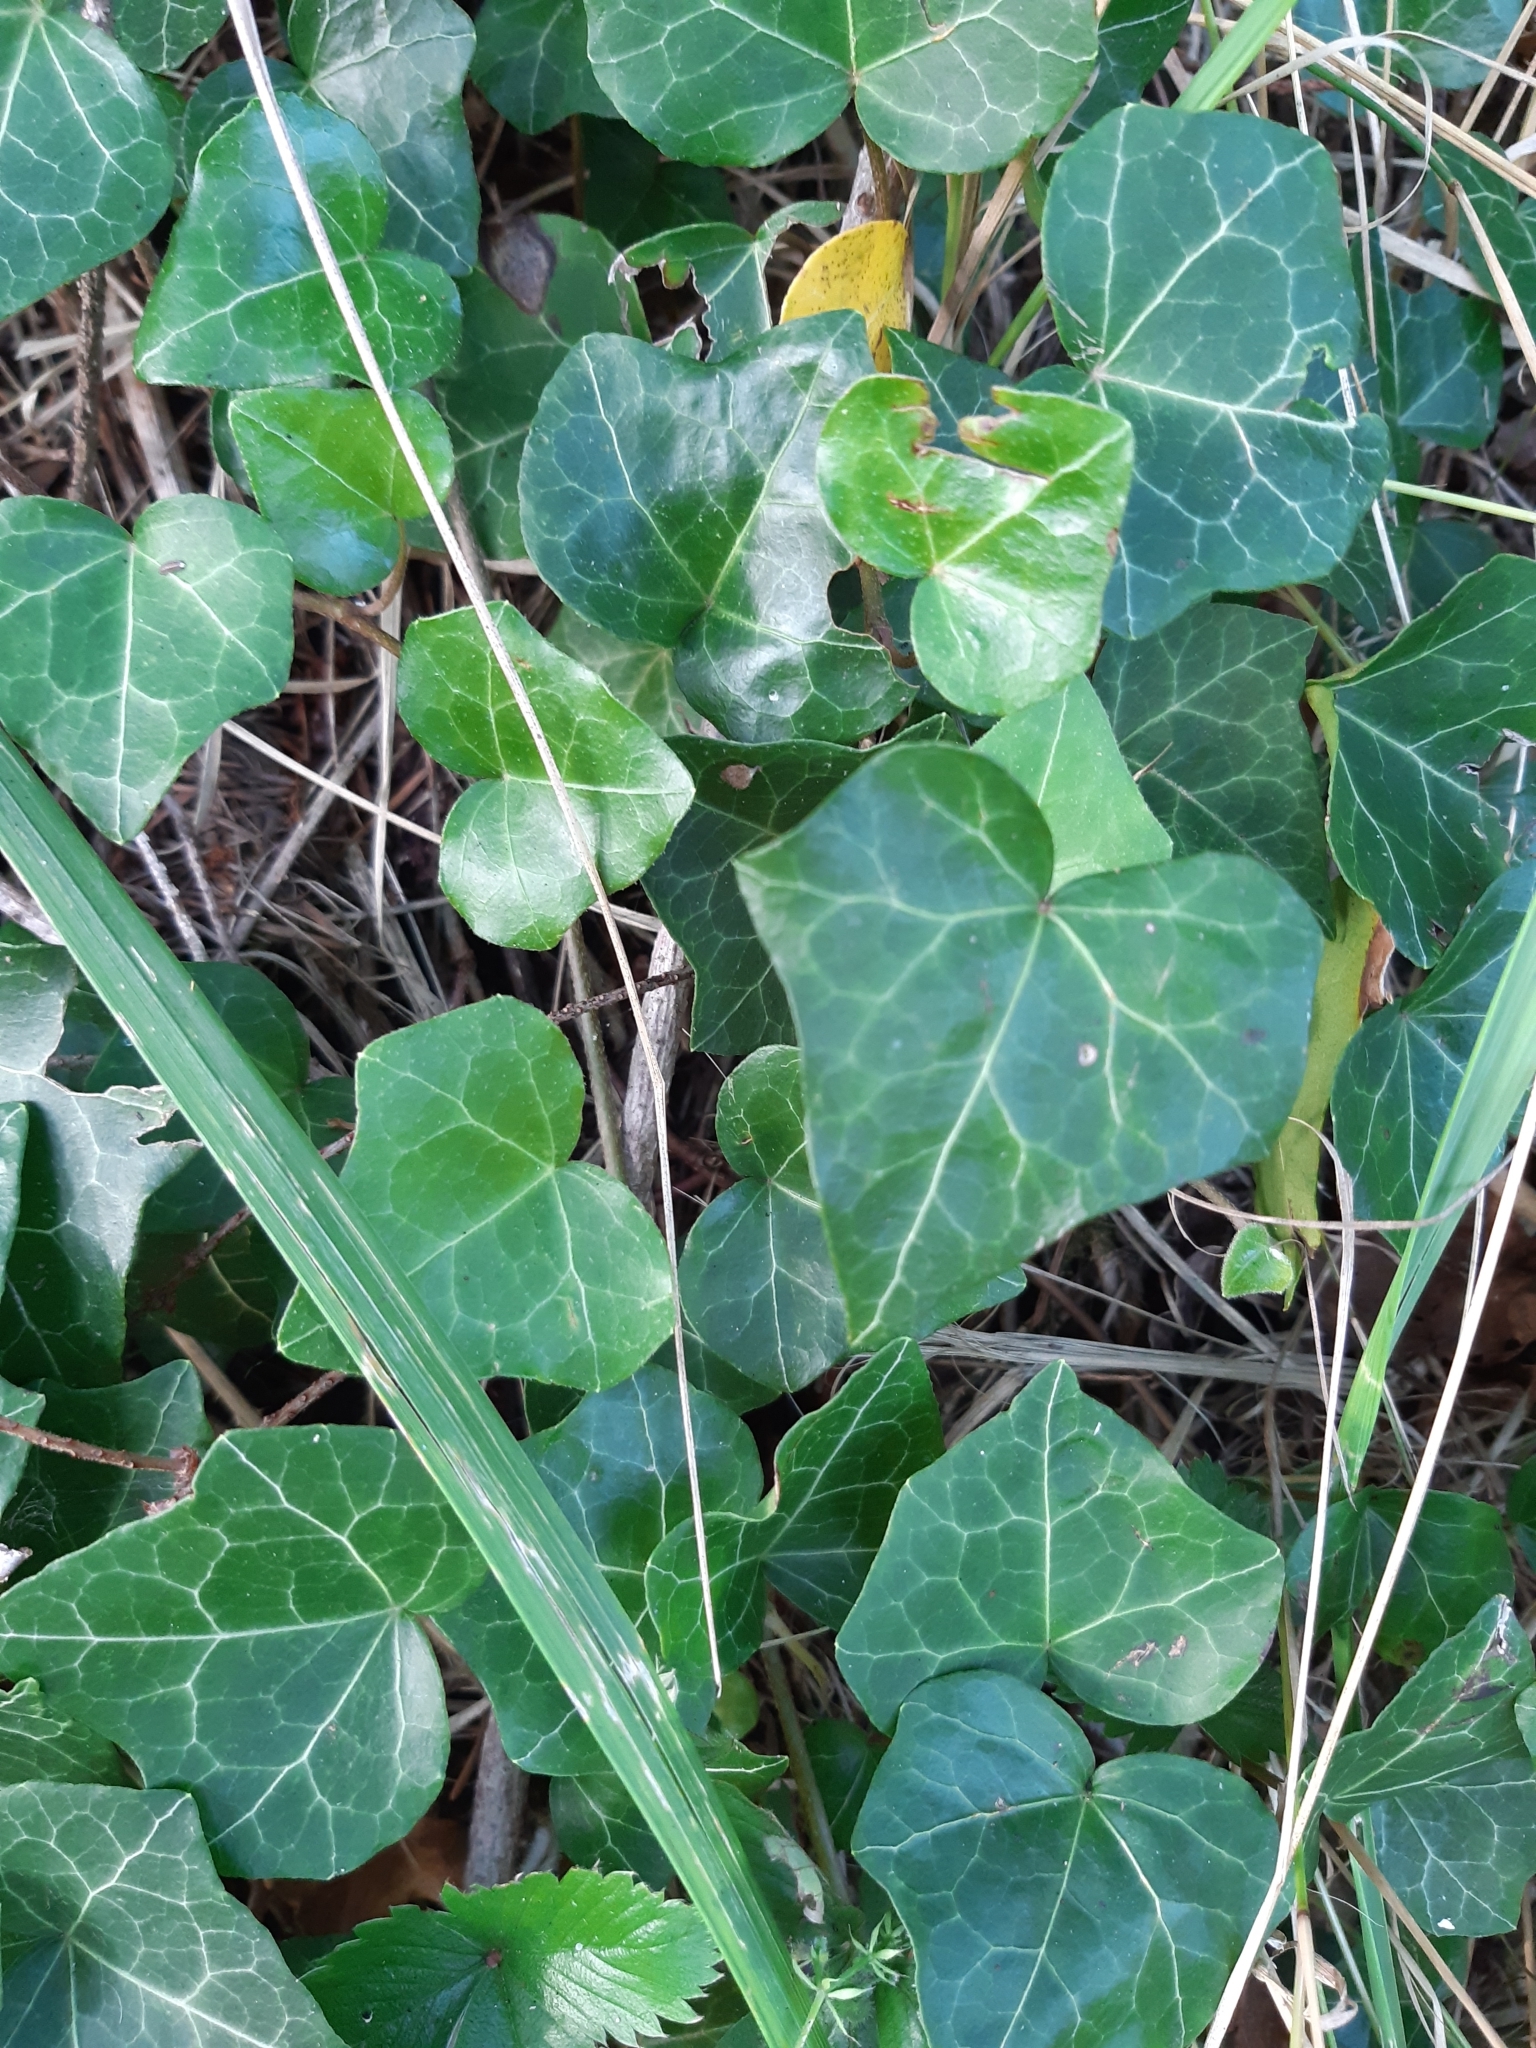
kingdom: Plantae
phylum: Tracheophyta
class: Magnoliopsida
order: Apiales
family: Araliaceae
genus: Hedera
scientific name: Hedera helix
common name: Ivy
